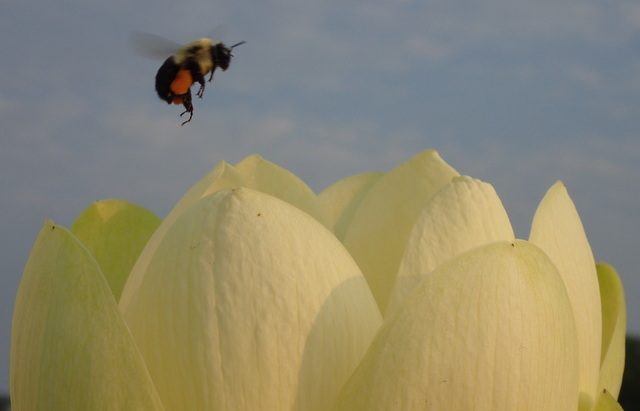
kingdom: Animalia
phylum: Arthropoda
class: Insecta
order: Hymenoptera
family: Apidae
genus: Bombus
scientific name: Bombus impatiens
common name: Common eastern bumble bee
